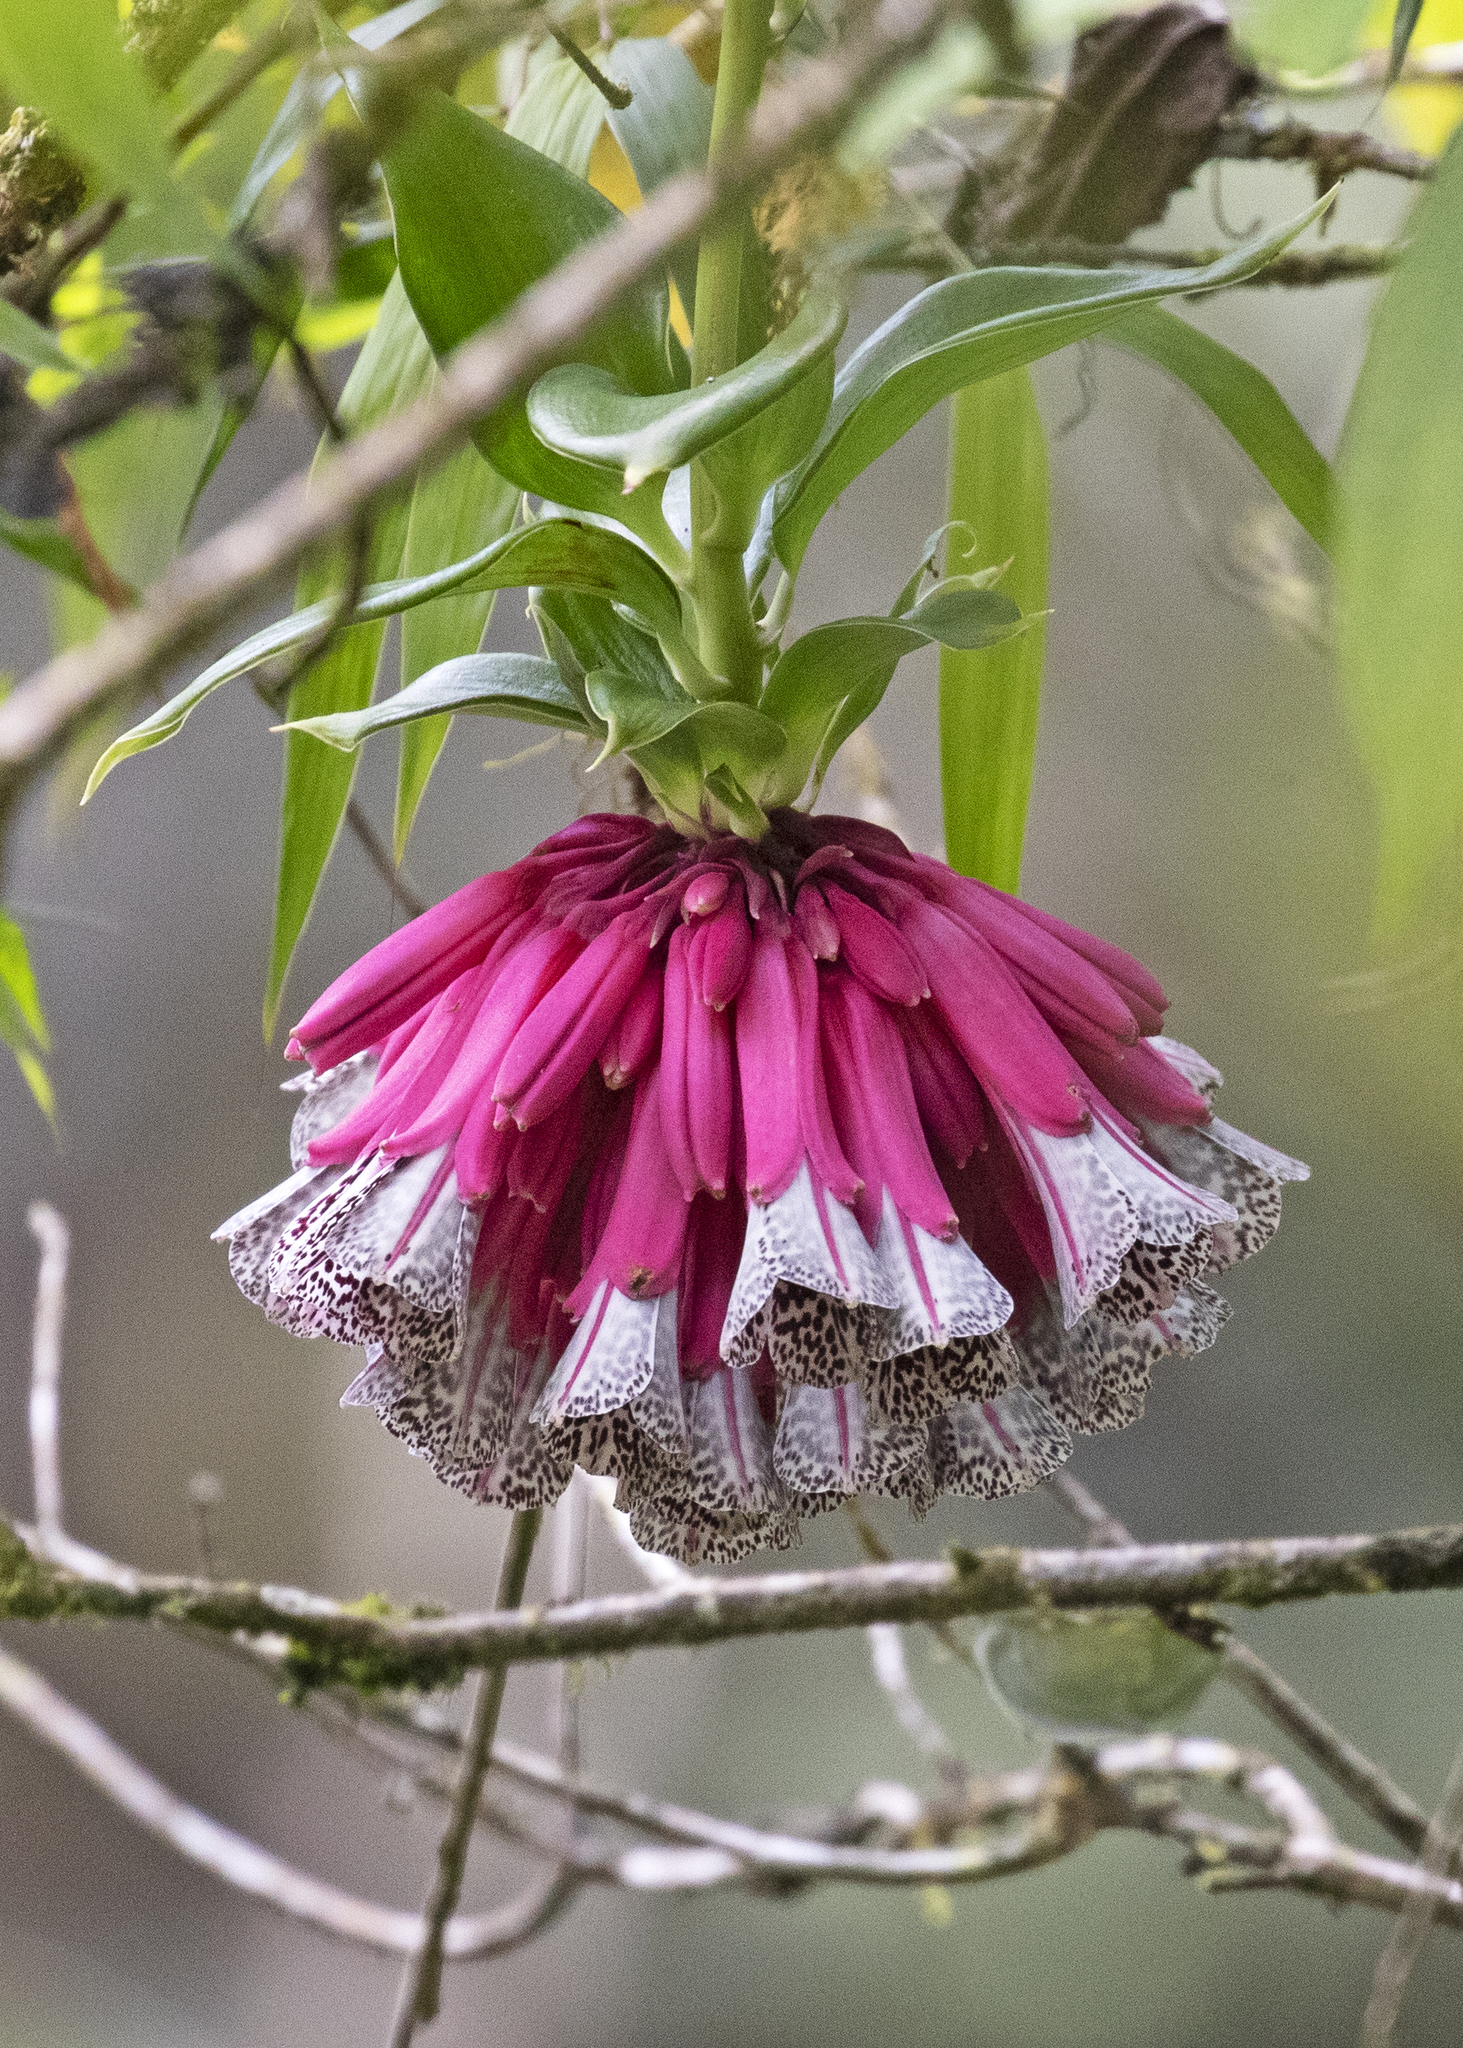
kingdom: Plantae
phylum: Tracheophyta
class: Liliopsida
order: Liliales
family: Alstroemeriaceae
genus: Bomarea
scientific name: Bomarea pardina
